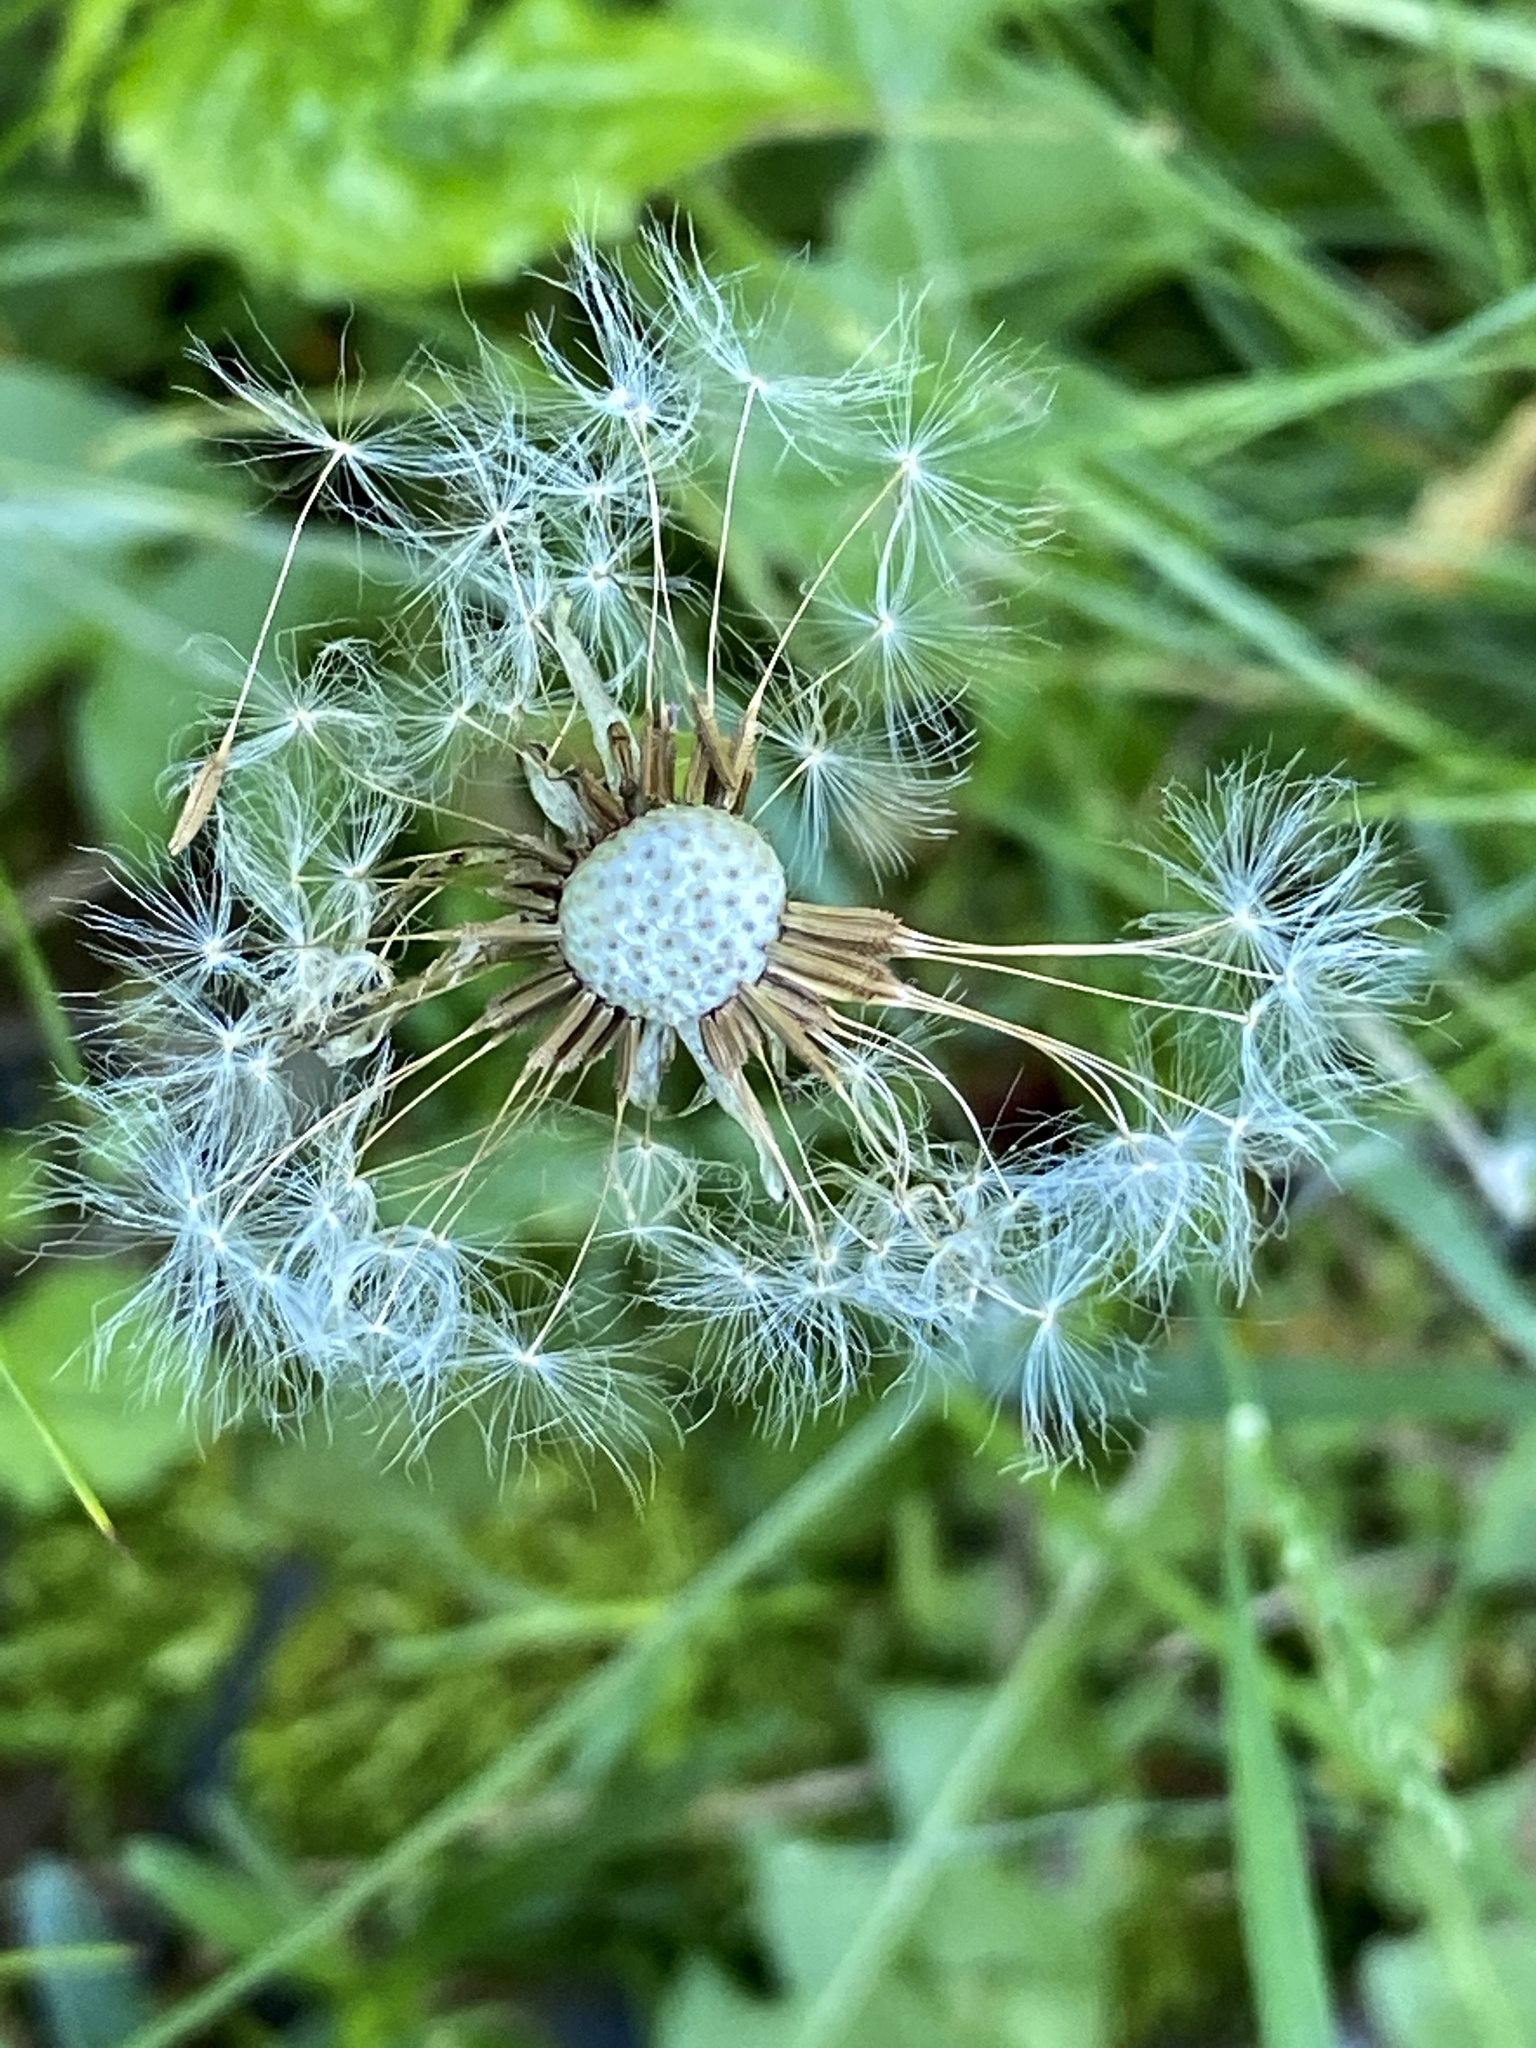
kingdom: Plantae
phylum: Tracheophyta
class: Magnoliopsida
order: Asterales
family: Asteraceae
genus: Taraxacum
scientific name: Taraxacum officinale
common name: Common dandelion
